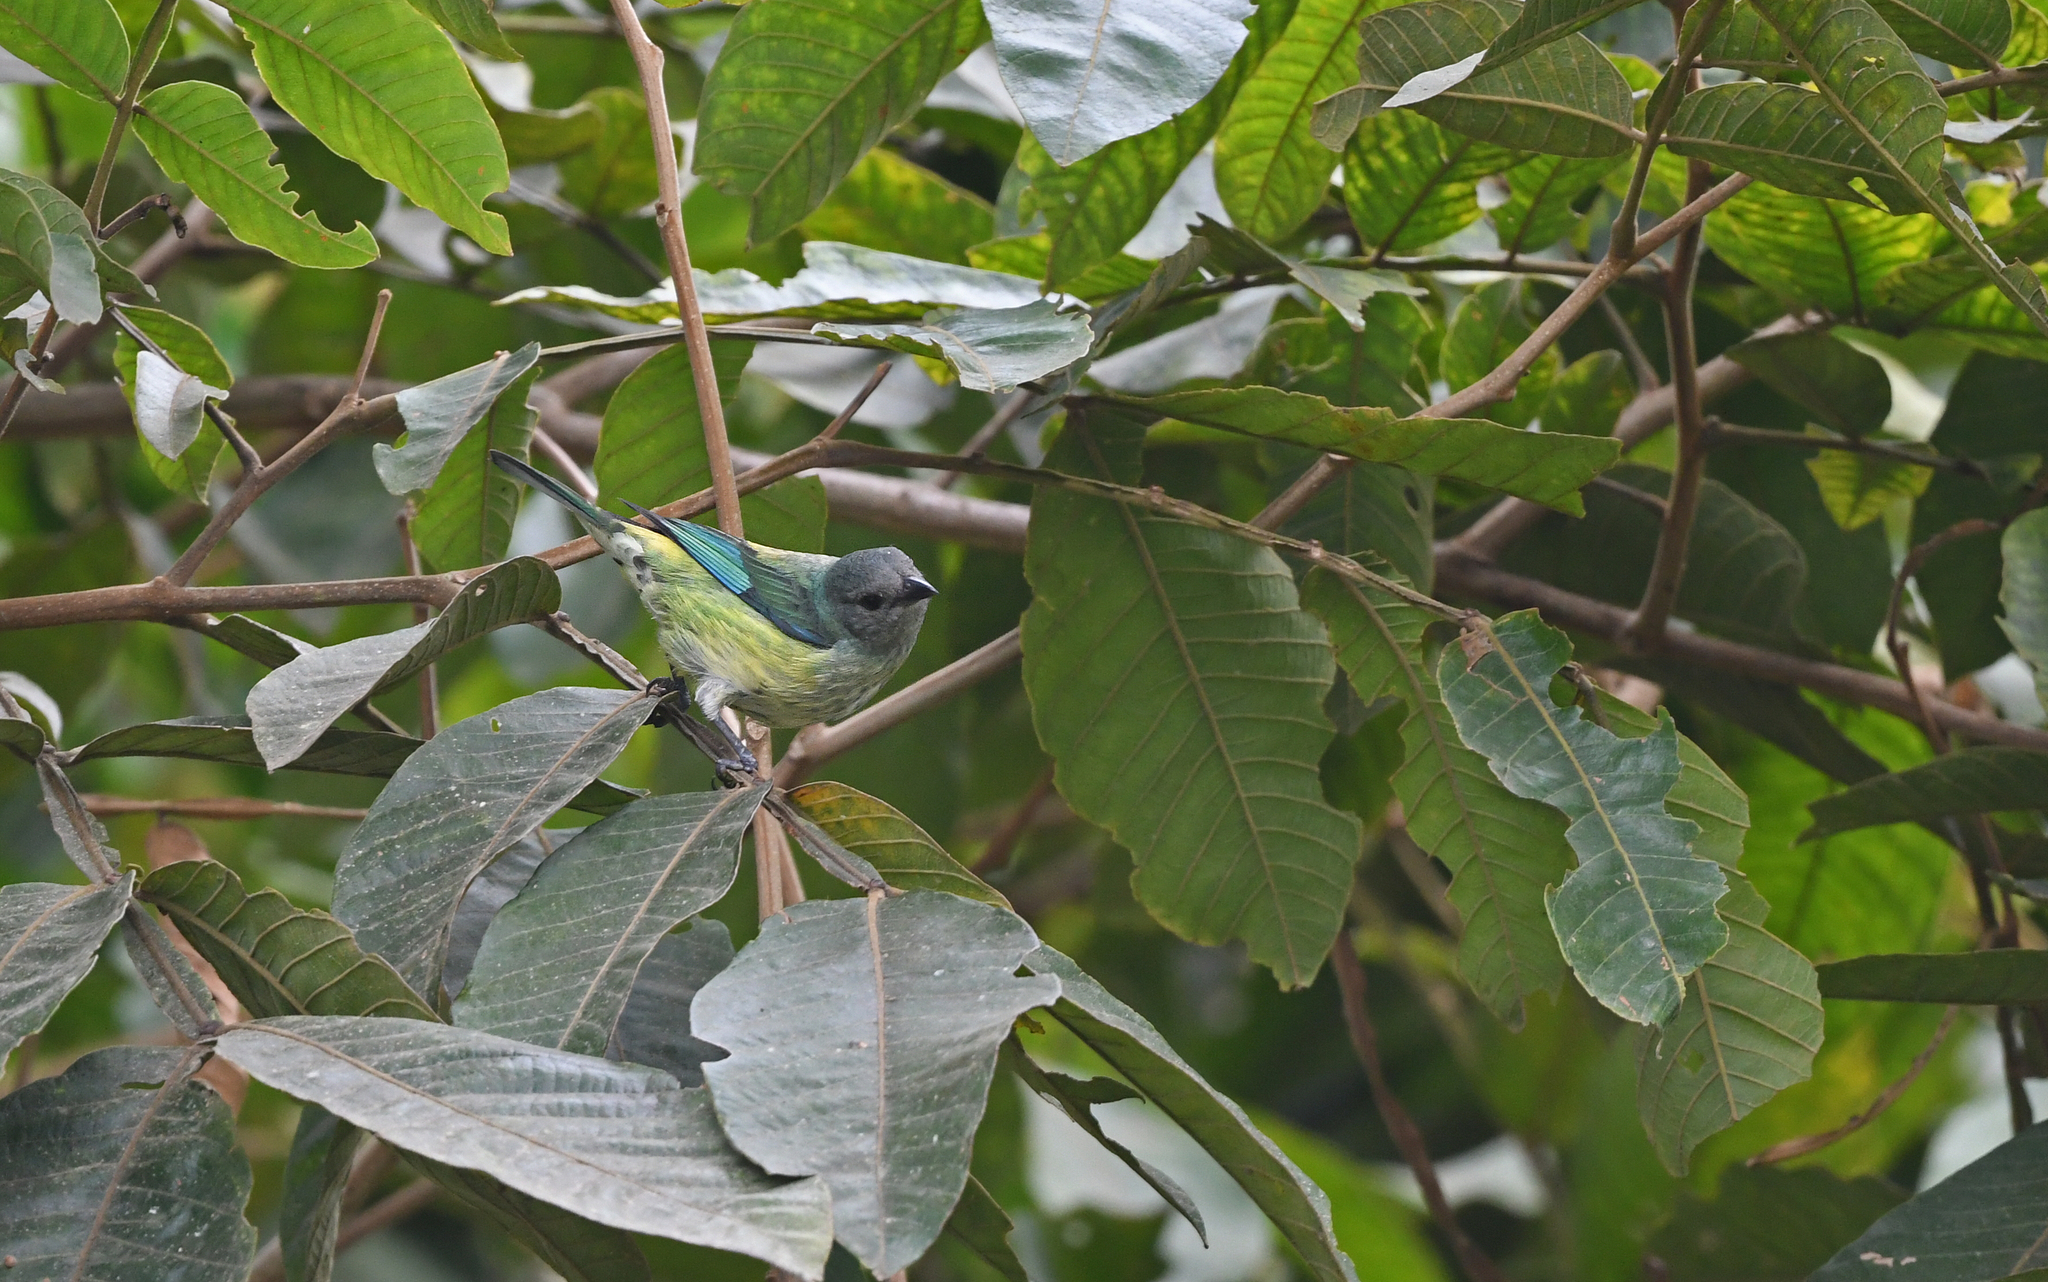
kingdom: Animalia
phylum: Chordata
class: Aves
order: Passeriformes
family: Thraupidae
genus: Stilpnia
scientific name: Stilpnia cyanoptera
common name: Black-headed tanager
